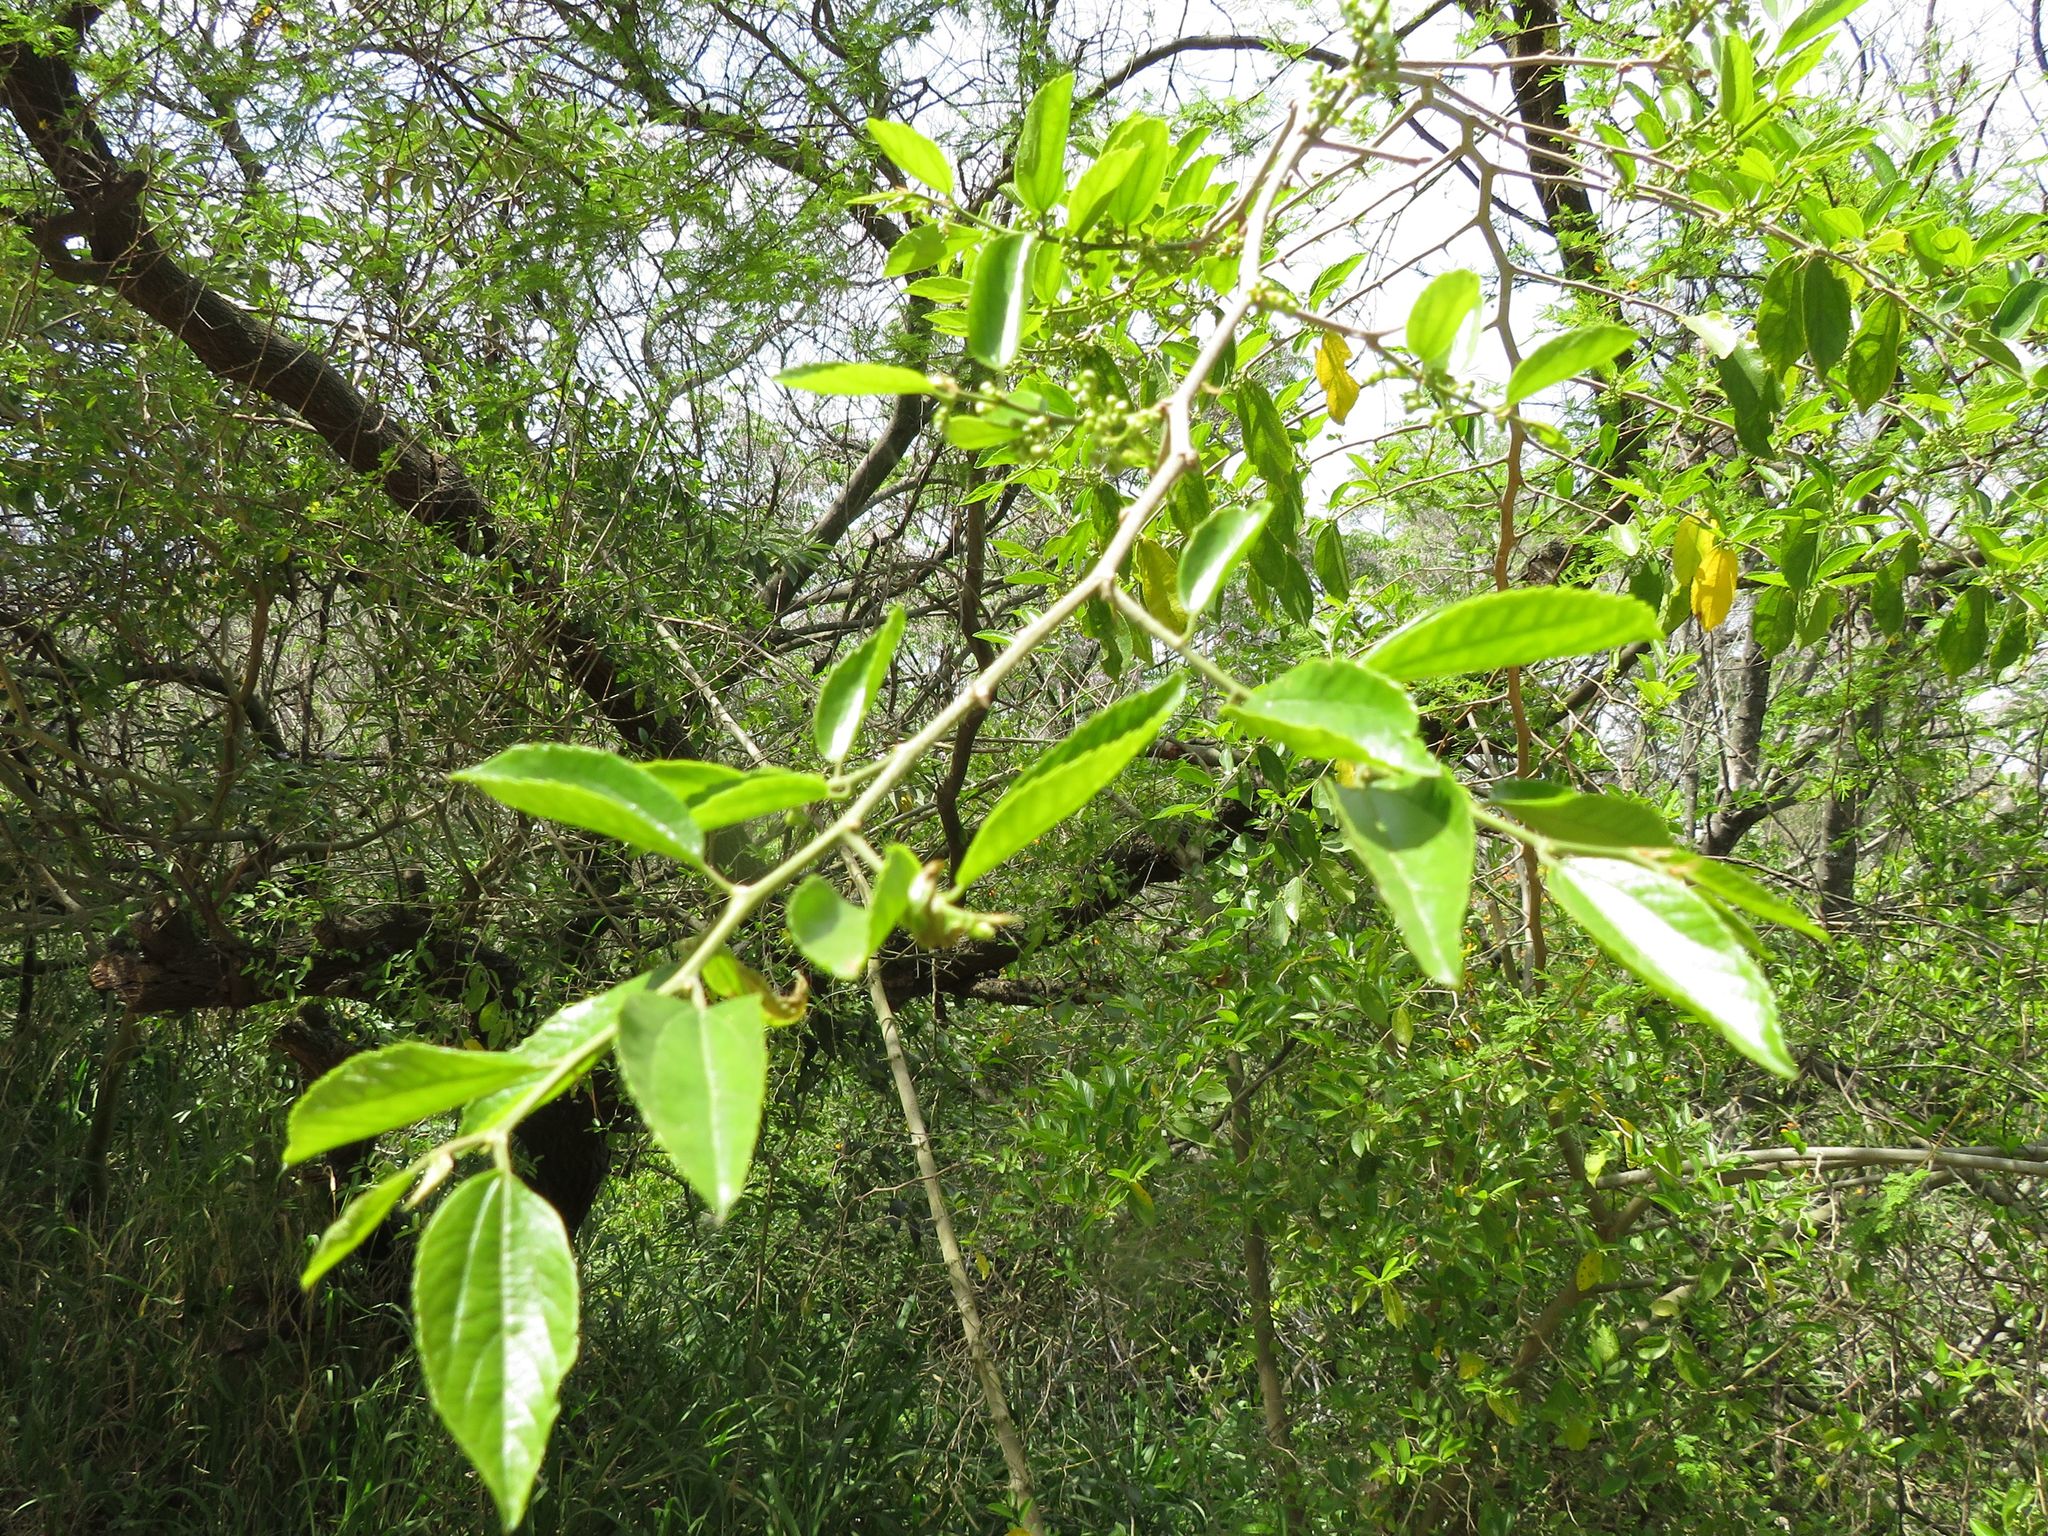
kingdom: Plantae
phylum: Tracheophyta
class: Magnoliopsida
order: Rosales
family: Cannabaceae
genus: Celtis
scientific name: Celtis iguanaea
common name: Iguana hackberry
